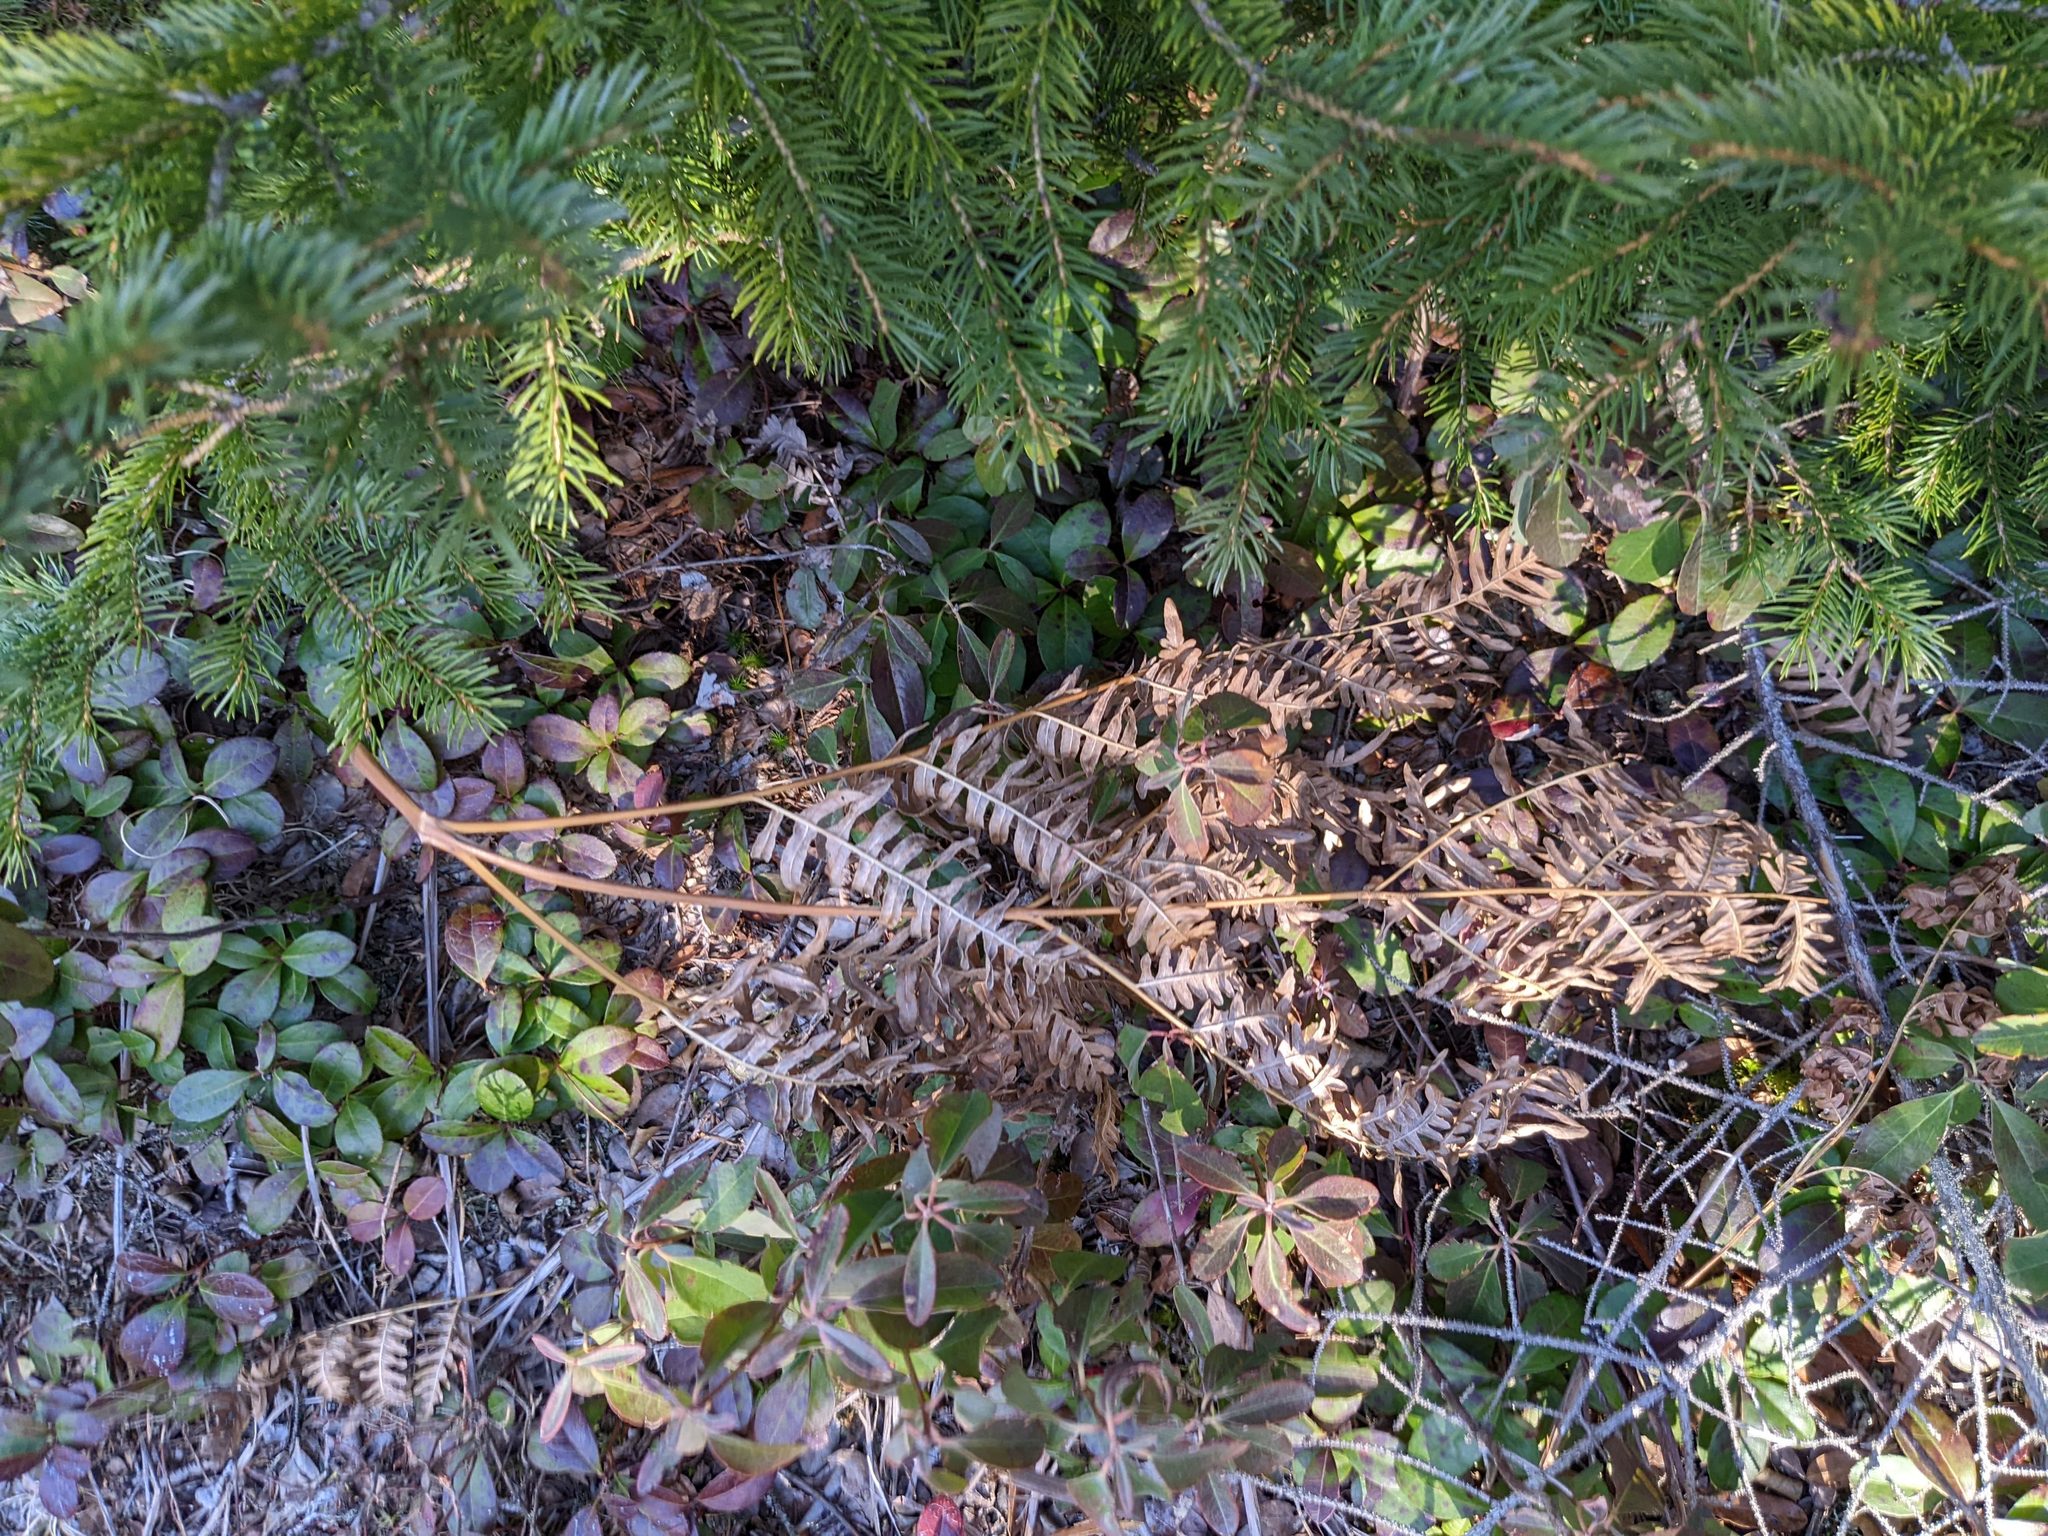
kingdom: Plantae
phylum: Tracheophyta
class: Polypodiopsida
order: Polypodiales
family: Dennstaedtiaceae
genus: Pteridium
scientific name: Pteridium aquilinum
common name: Bracken
